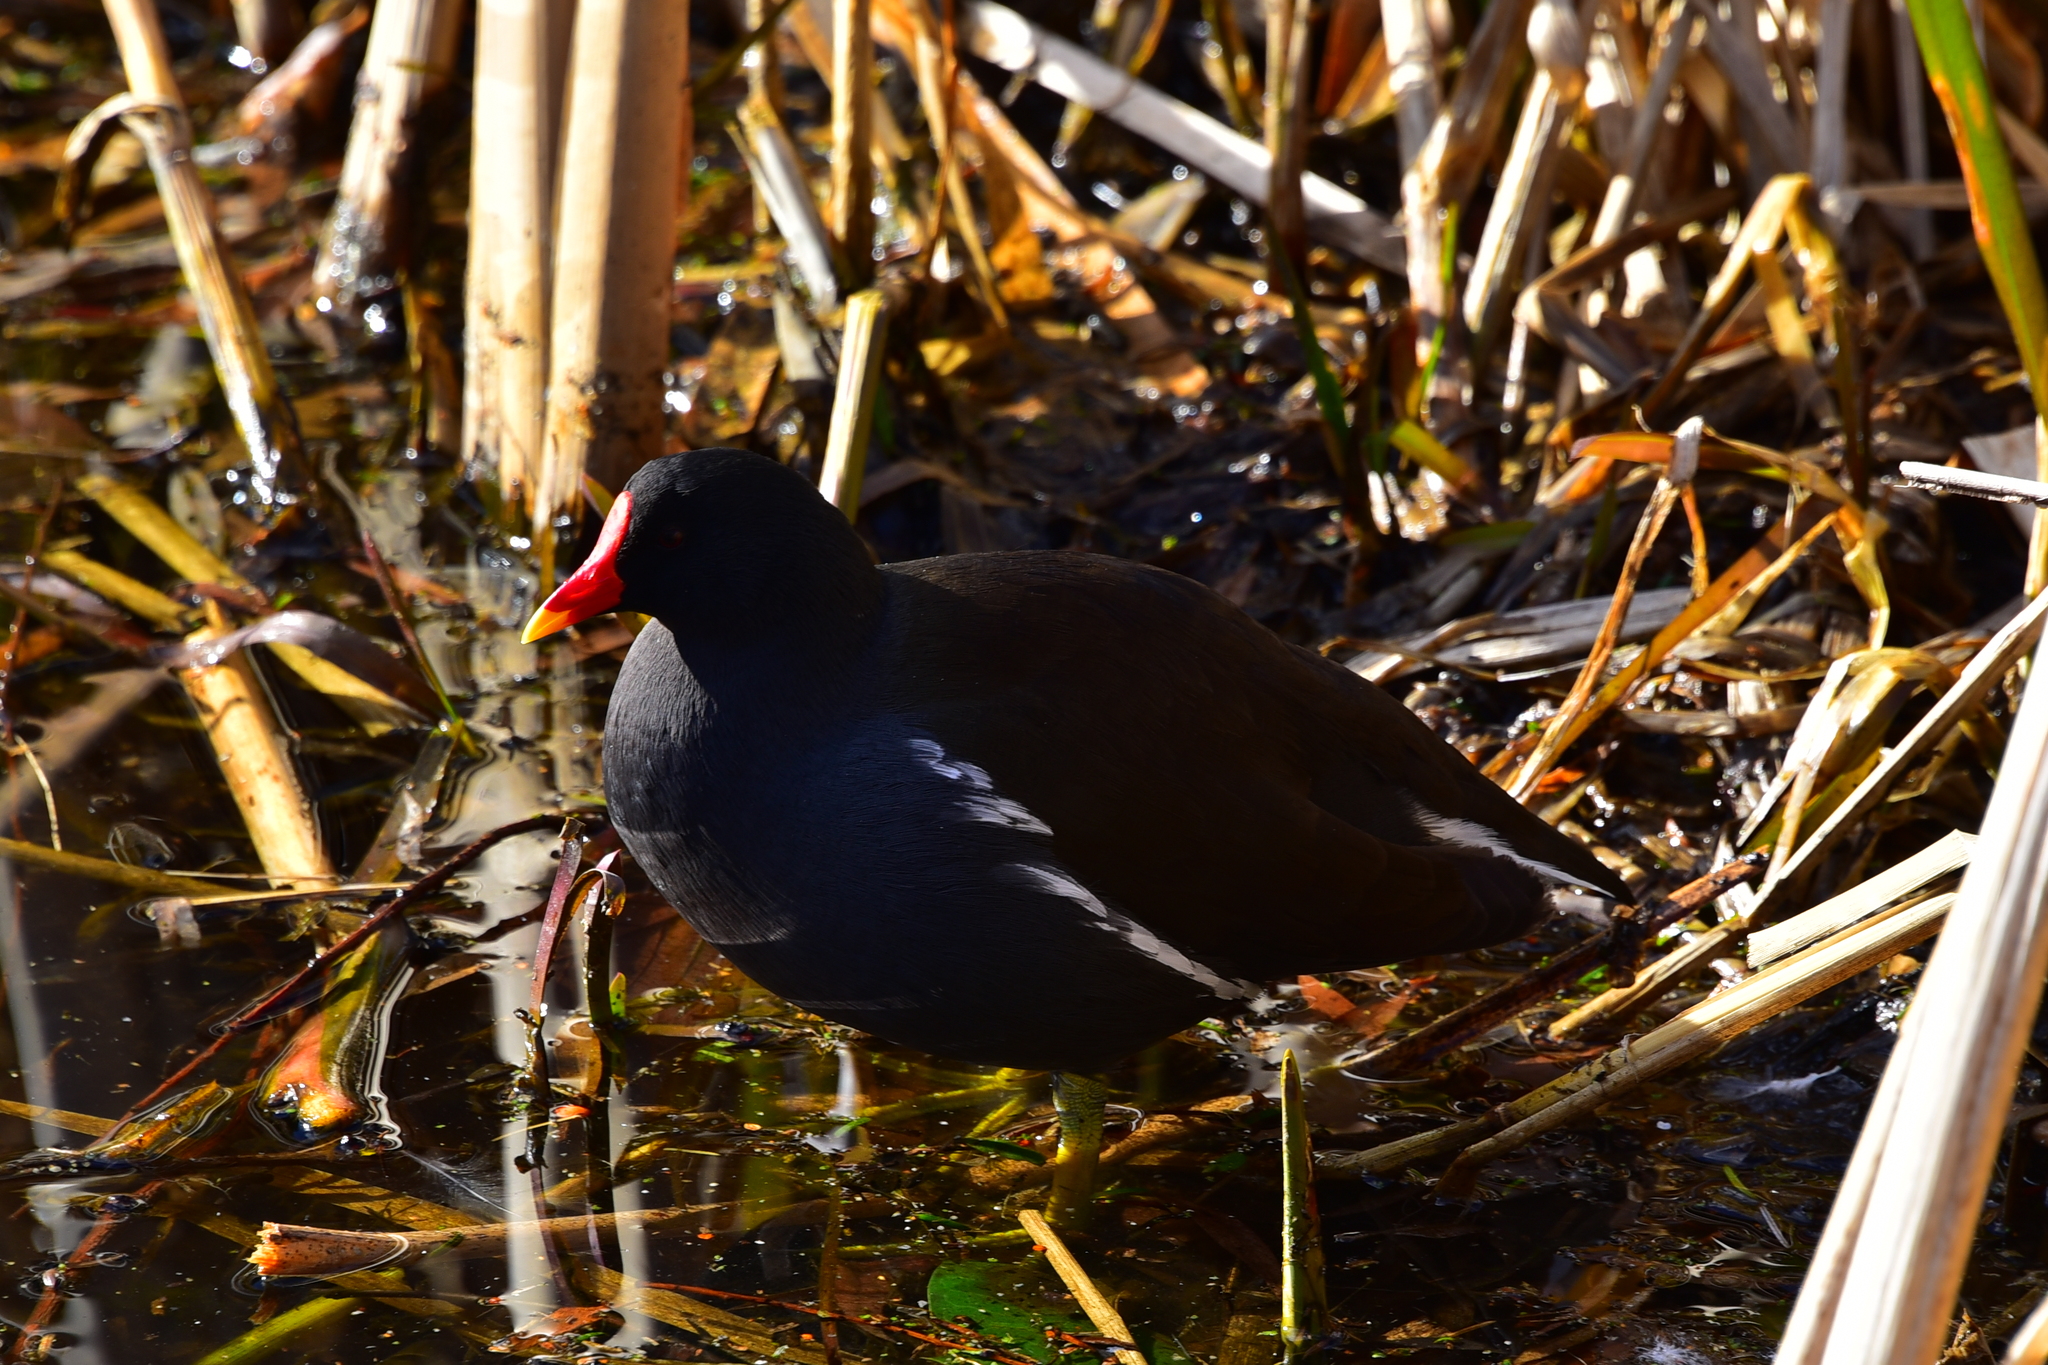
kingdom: Animalia
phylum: Chordata
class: Aves
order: Gruiformes
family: Rallidae
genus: Gallinula
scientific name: Gallinula chloropus
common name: Common moorhen
